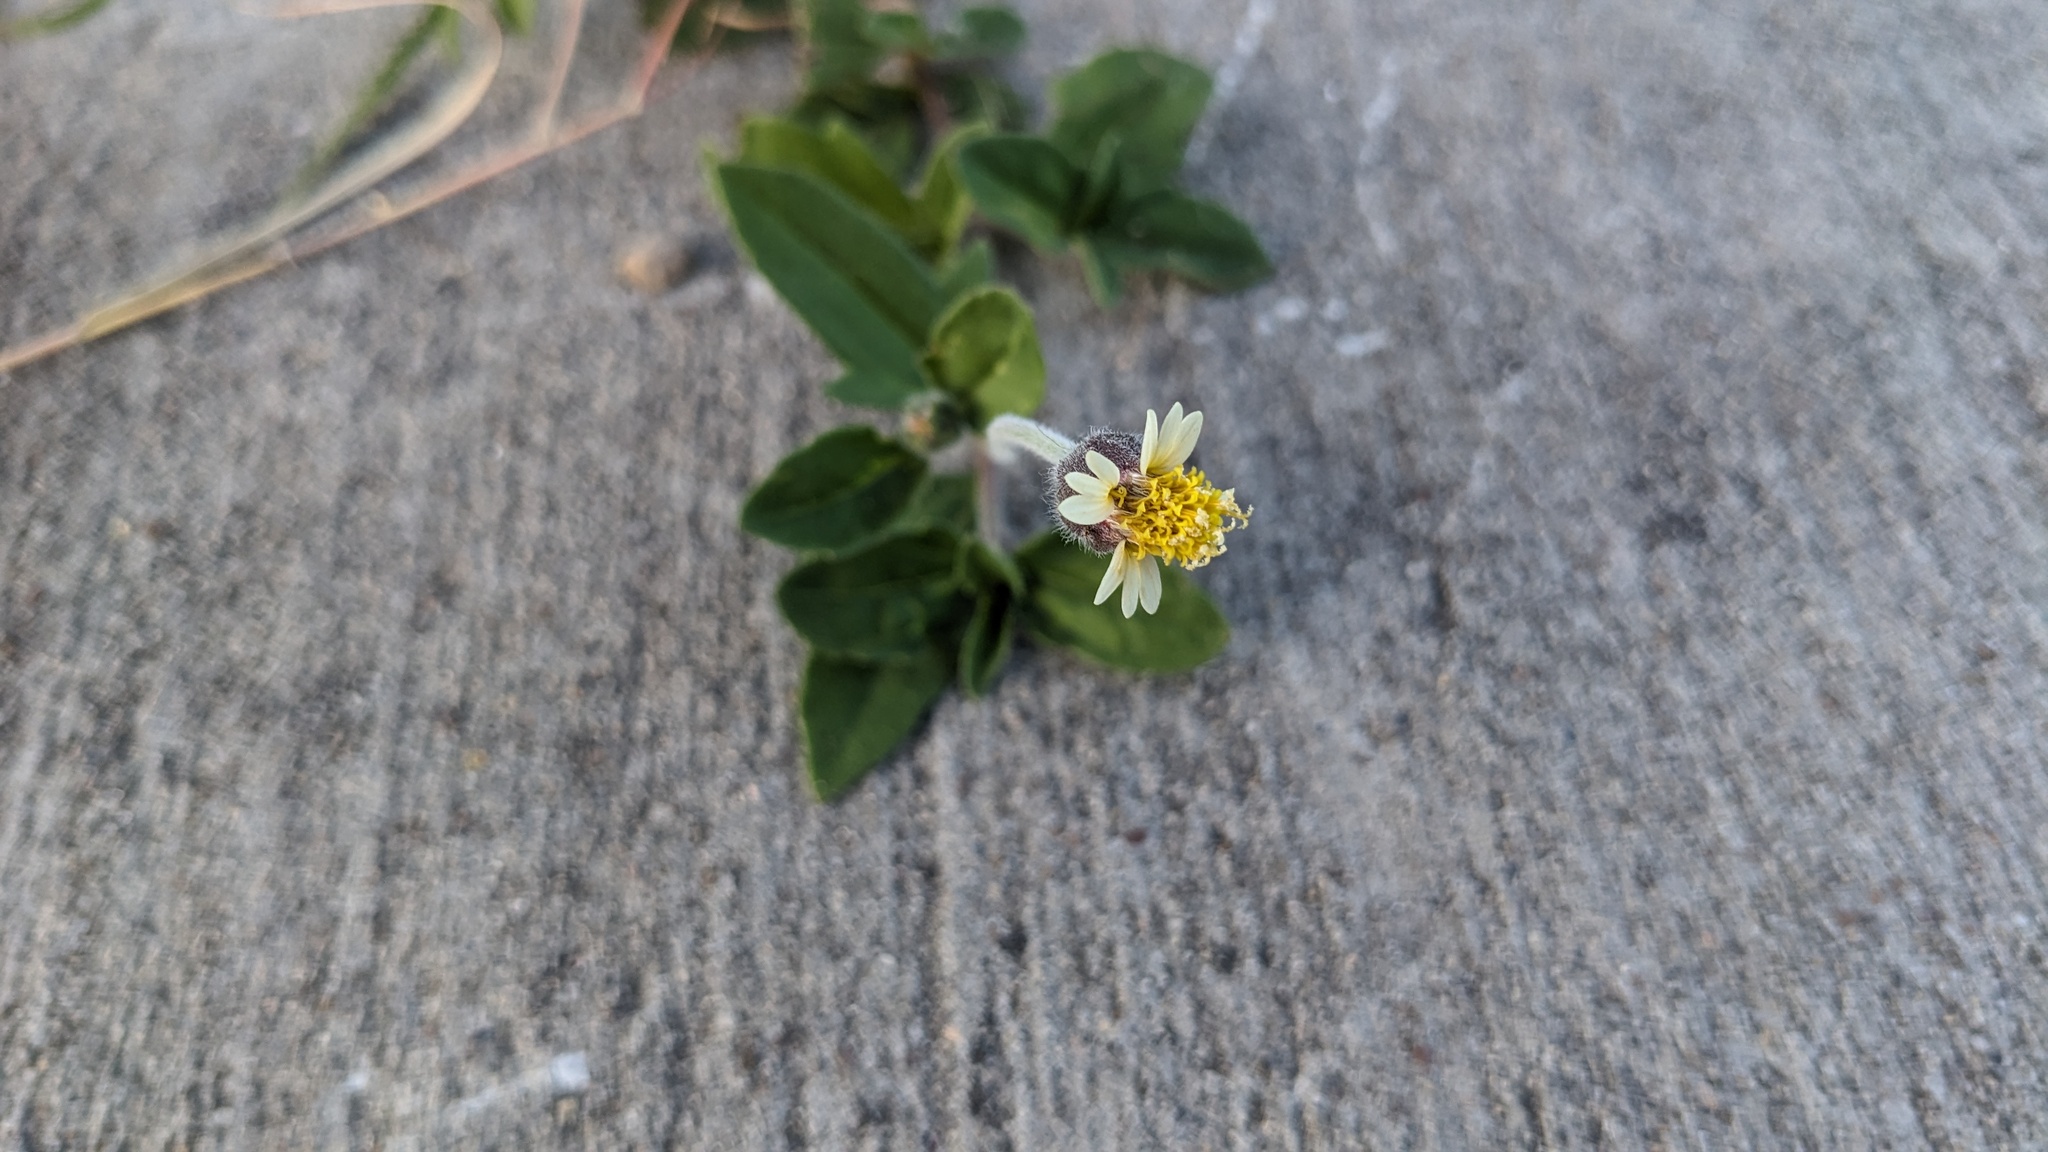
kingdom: Plantae
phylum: Tracheophyta
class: Magnoliopsida
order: Asterales
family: Asteraceae
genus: Tridax
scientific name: Tridax procumbens
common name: Coatbuttons
